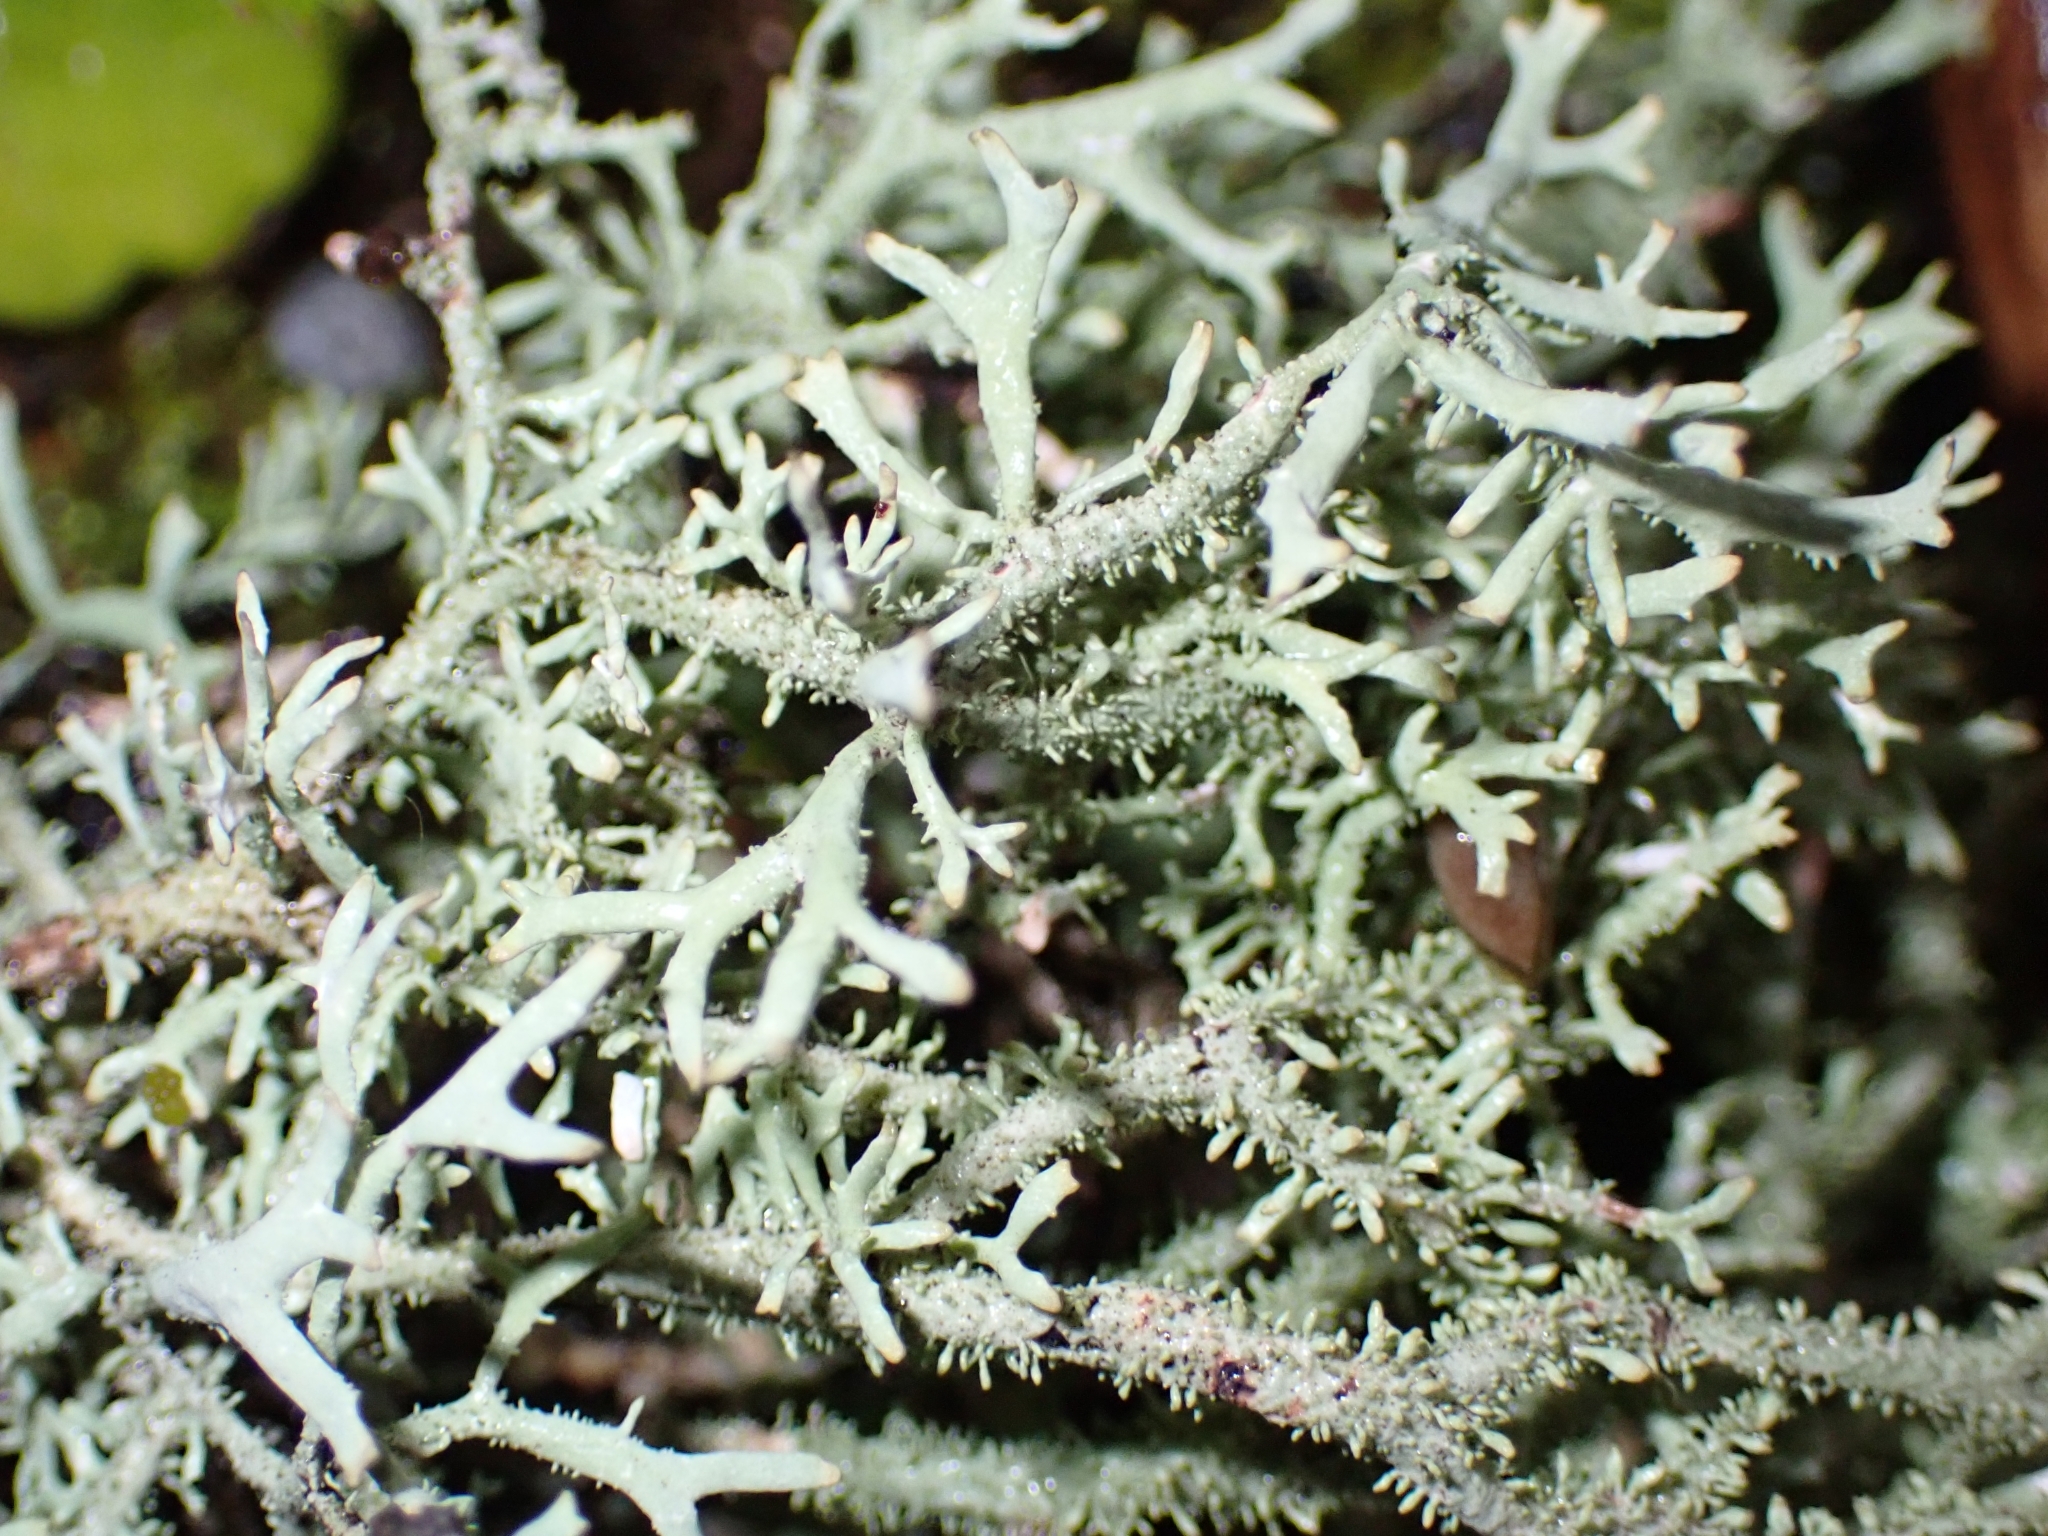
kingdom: Fungi
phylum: Ascomycota
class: Lecanoromycetes
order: Lecanorales
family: Parmeliaceae
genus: Pseudevernia
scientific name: Pseudevernia furfuracea
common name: Tree moss
